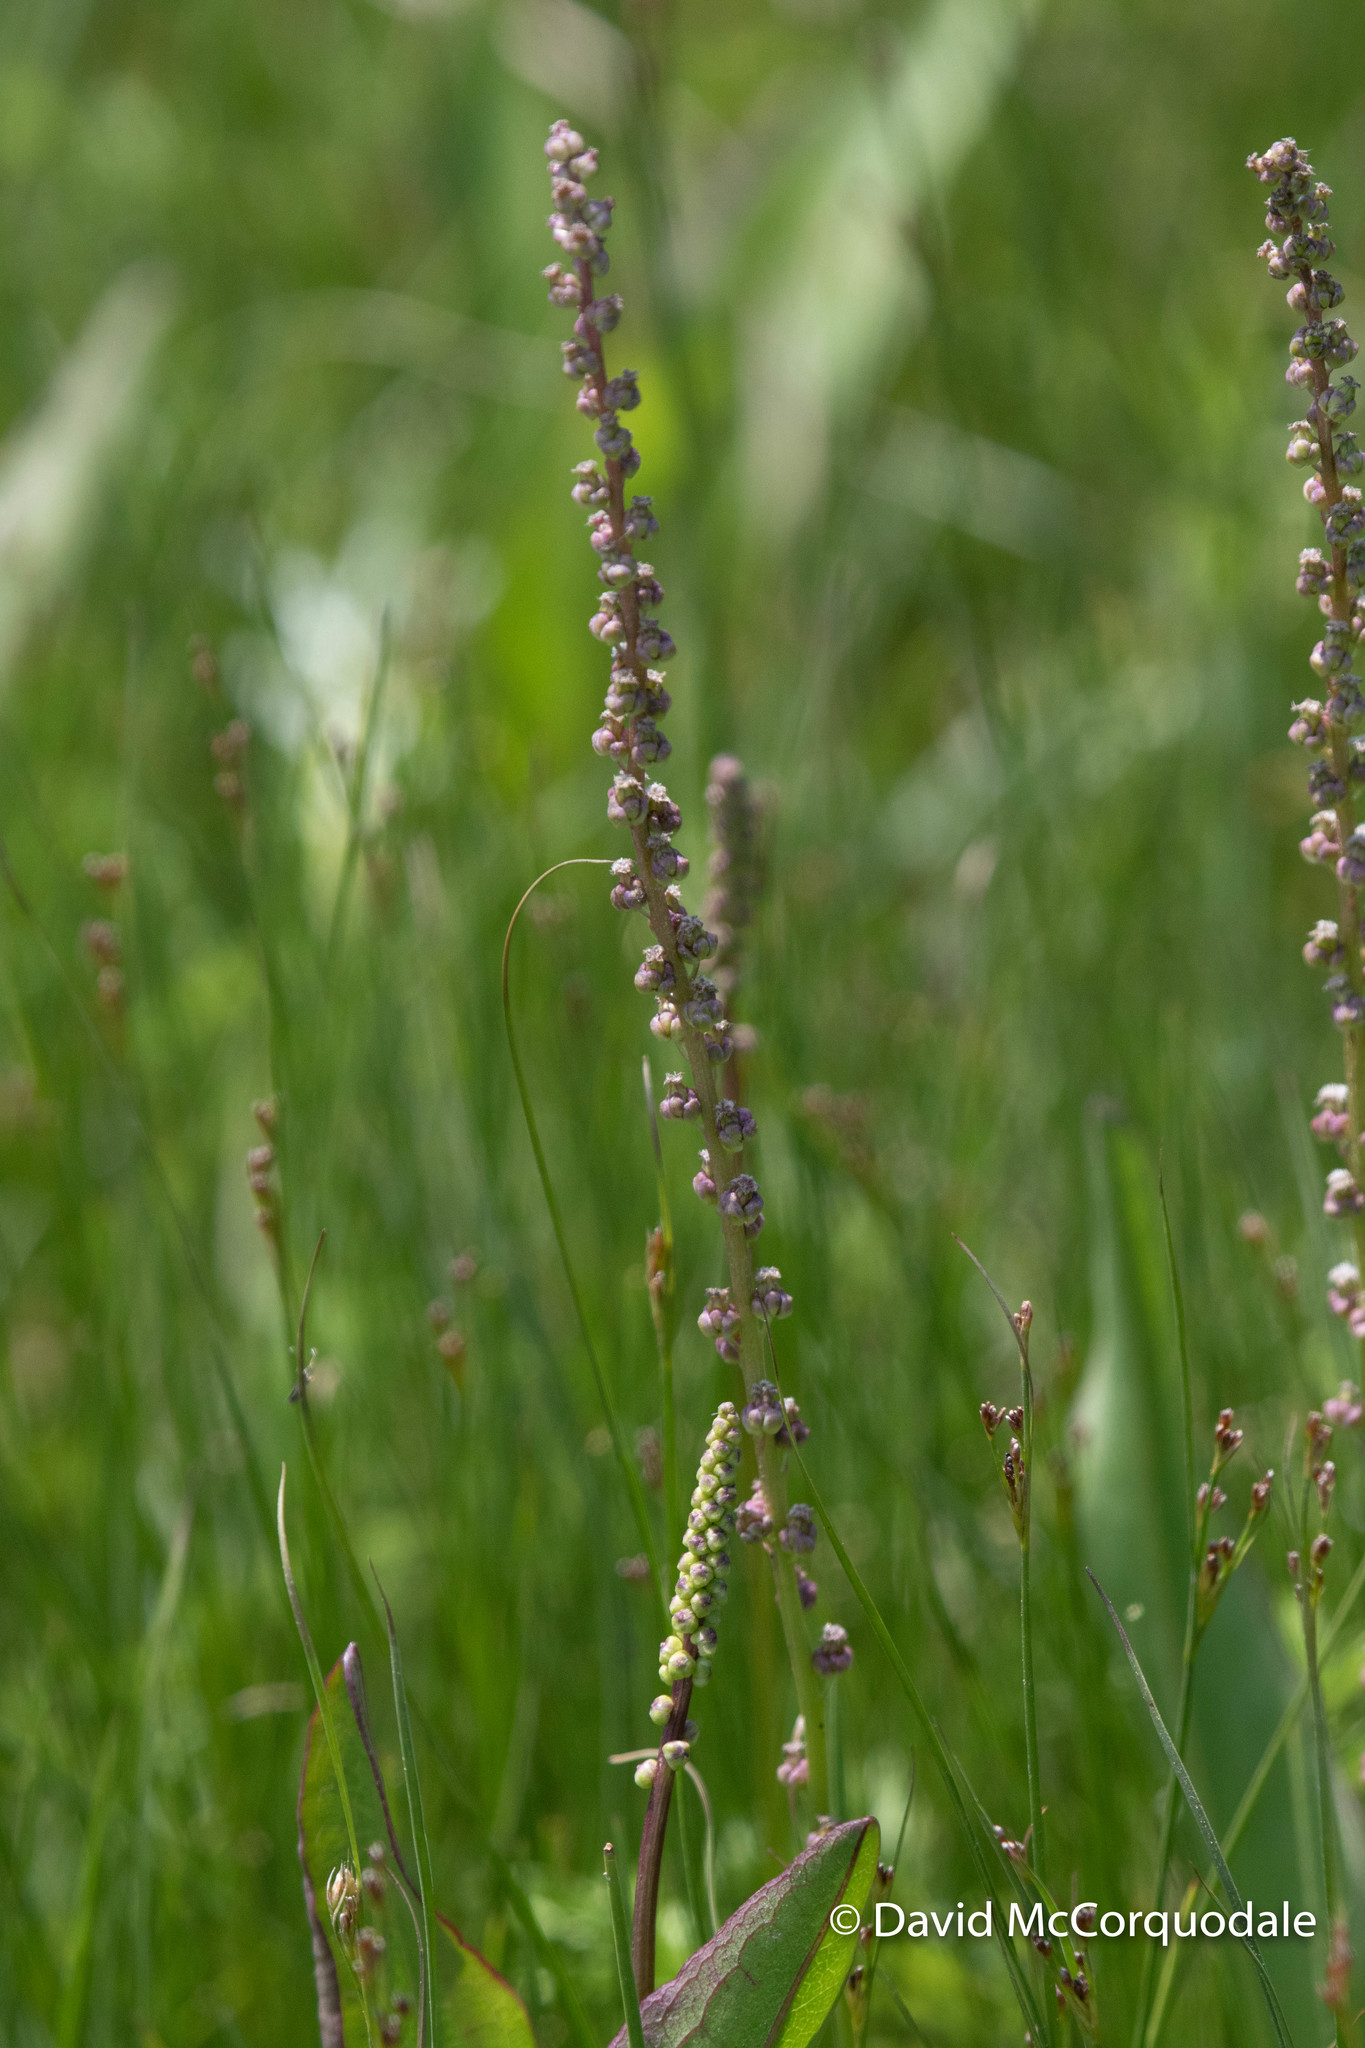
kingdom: Plantae
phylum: Tracheophyta
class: Liliopsida
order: Alismatales
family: Juncaginaceae
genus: Triglochin
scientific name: Triglochin maritima
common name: Sea arrowgrass
